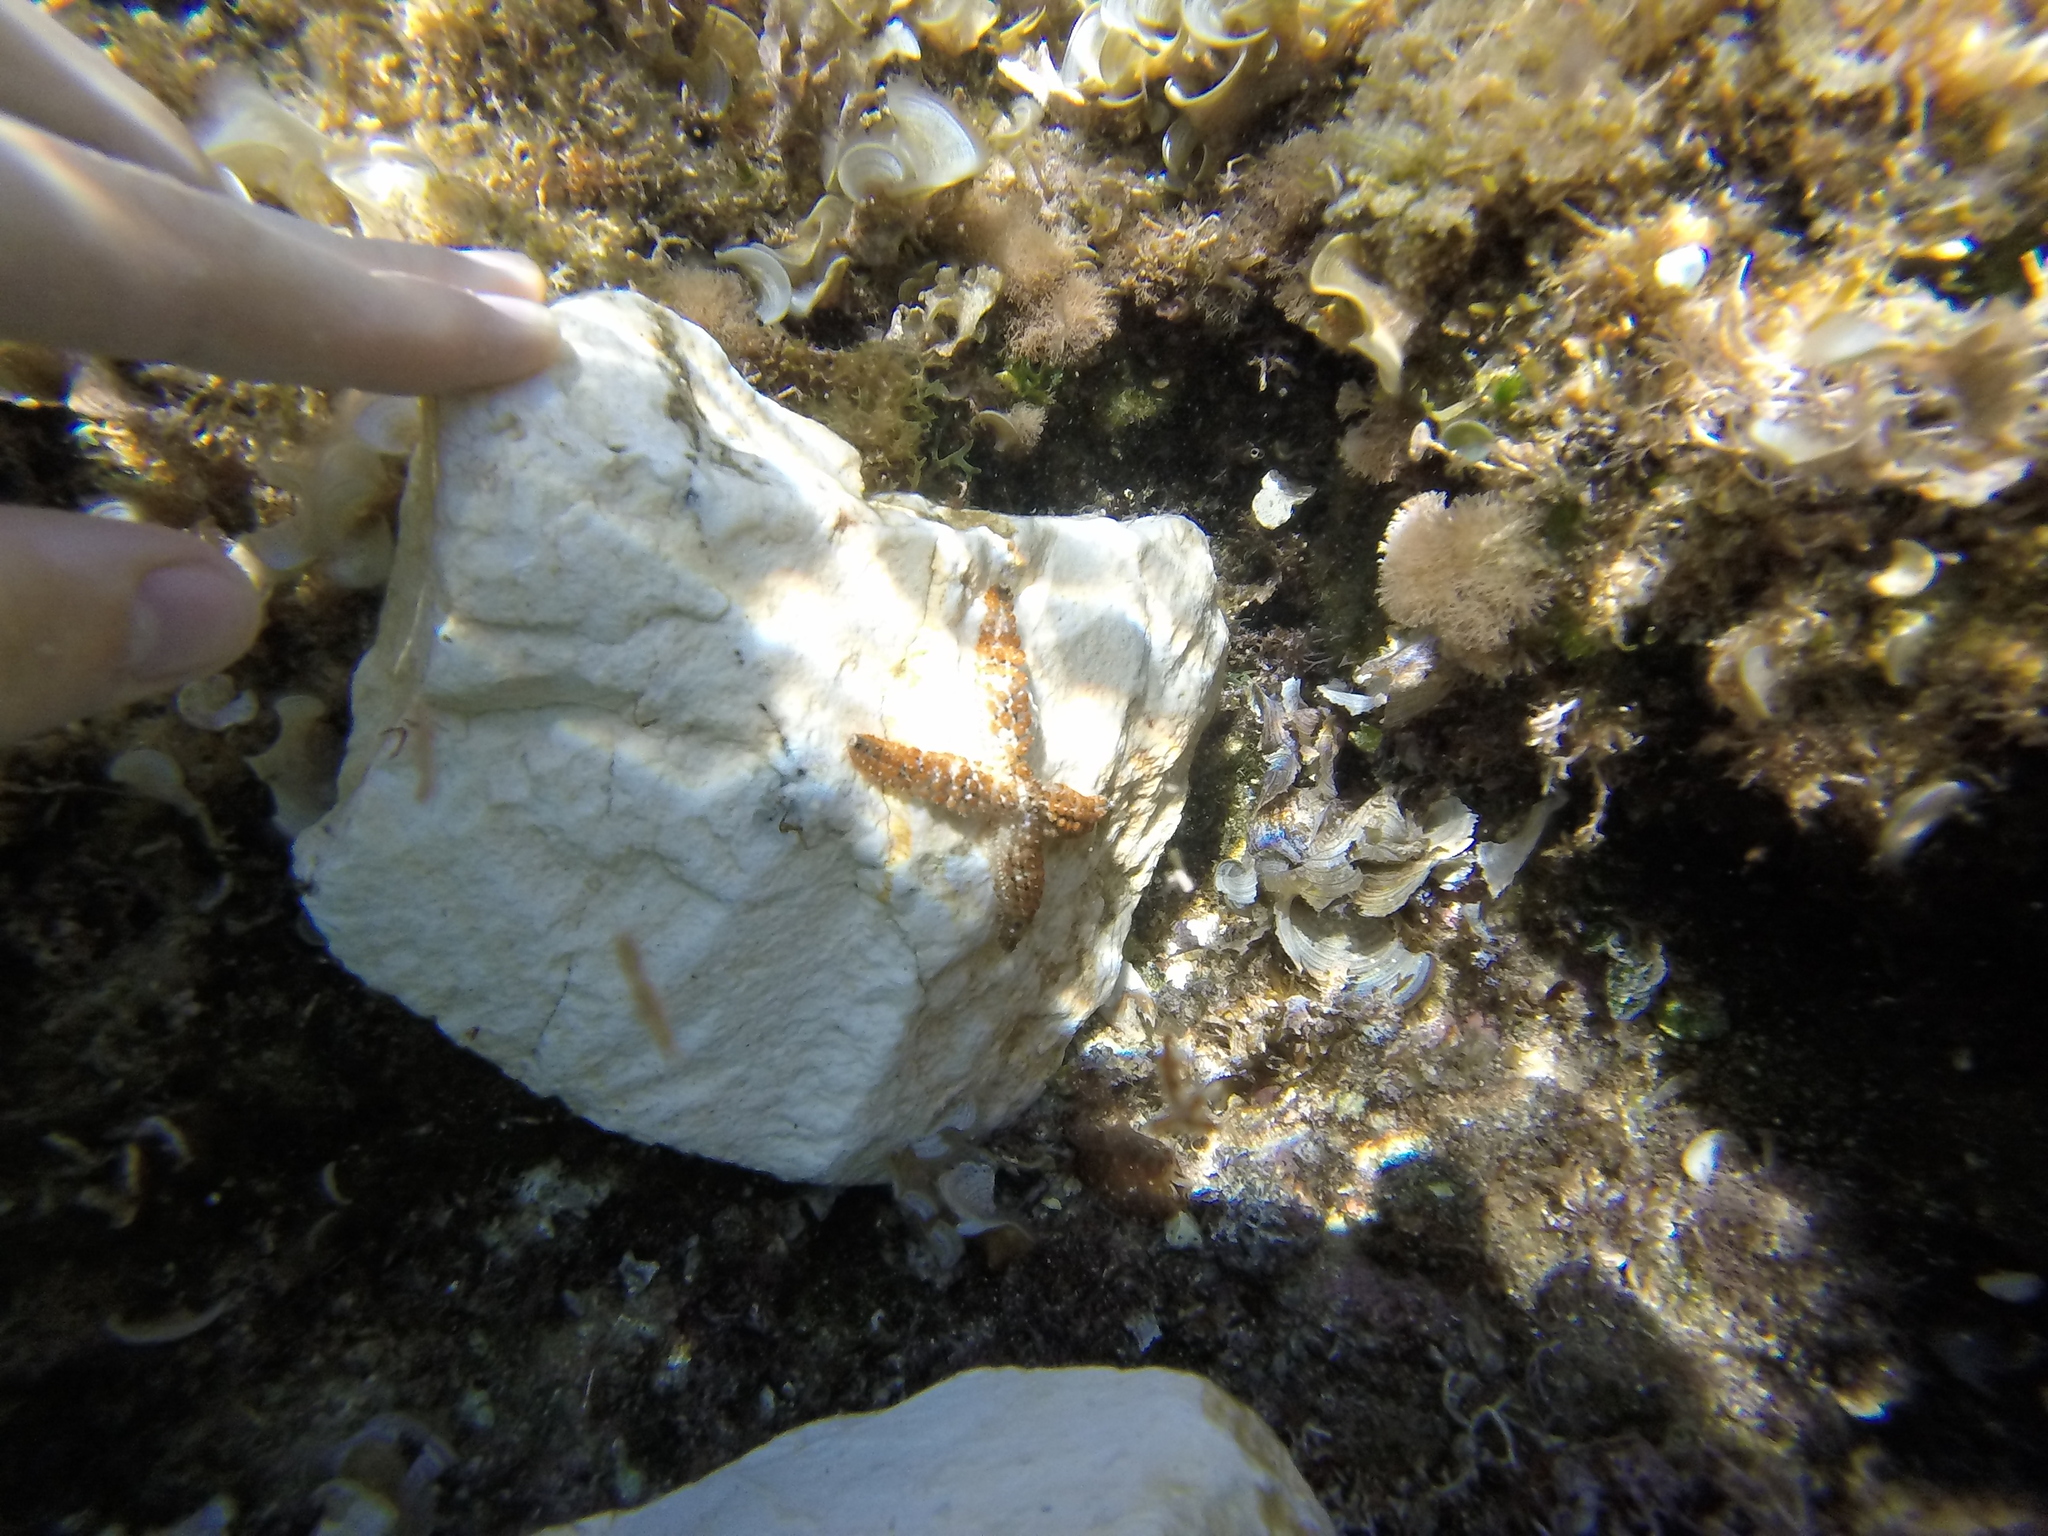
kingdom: Animalia
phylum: Echinodermata
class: Asteroidea
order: Forcipulatida
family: Asteriidae
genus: Coscinasterias
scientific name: Coscinasterias tenuispina
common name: Blue spiny starfish
